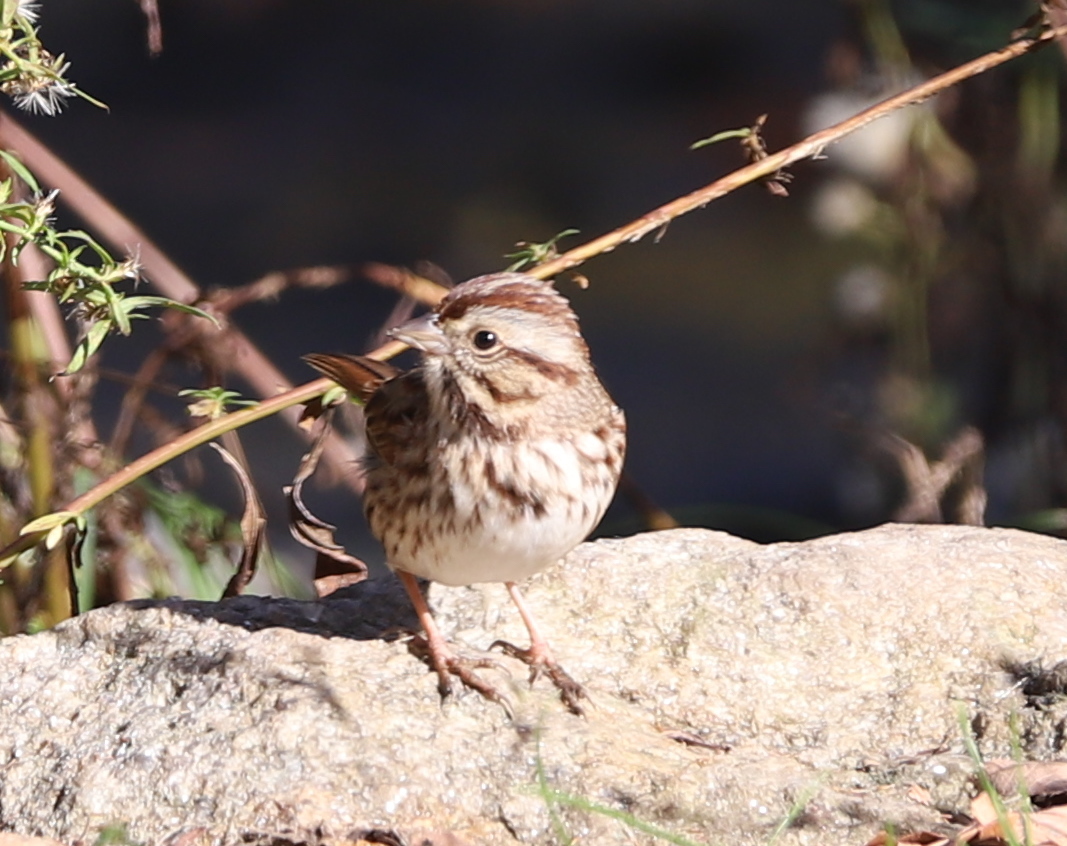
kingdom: Animalia
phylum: Chordata
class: Aves
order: Passeriformes
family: Passerellidae
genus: Melospiza
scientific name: Melospiza melodia
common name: Song sparrow
